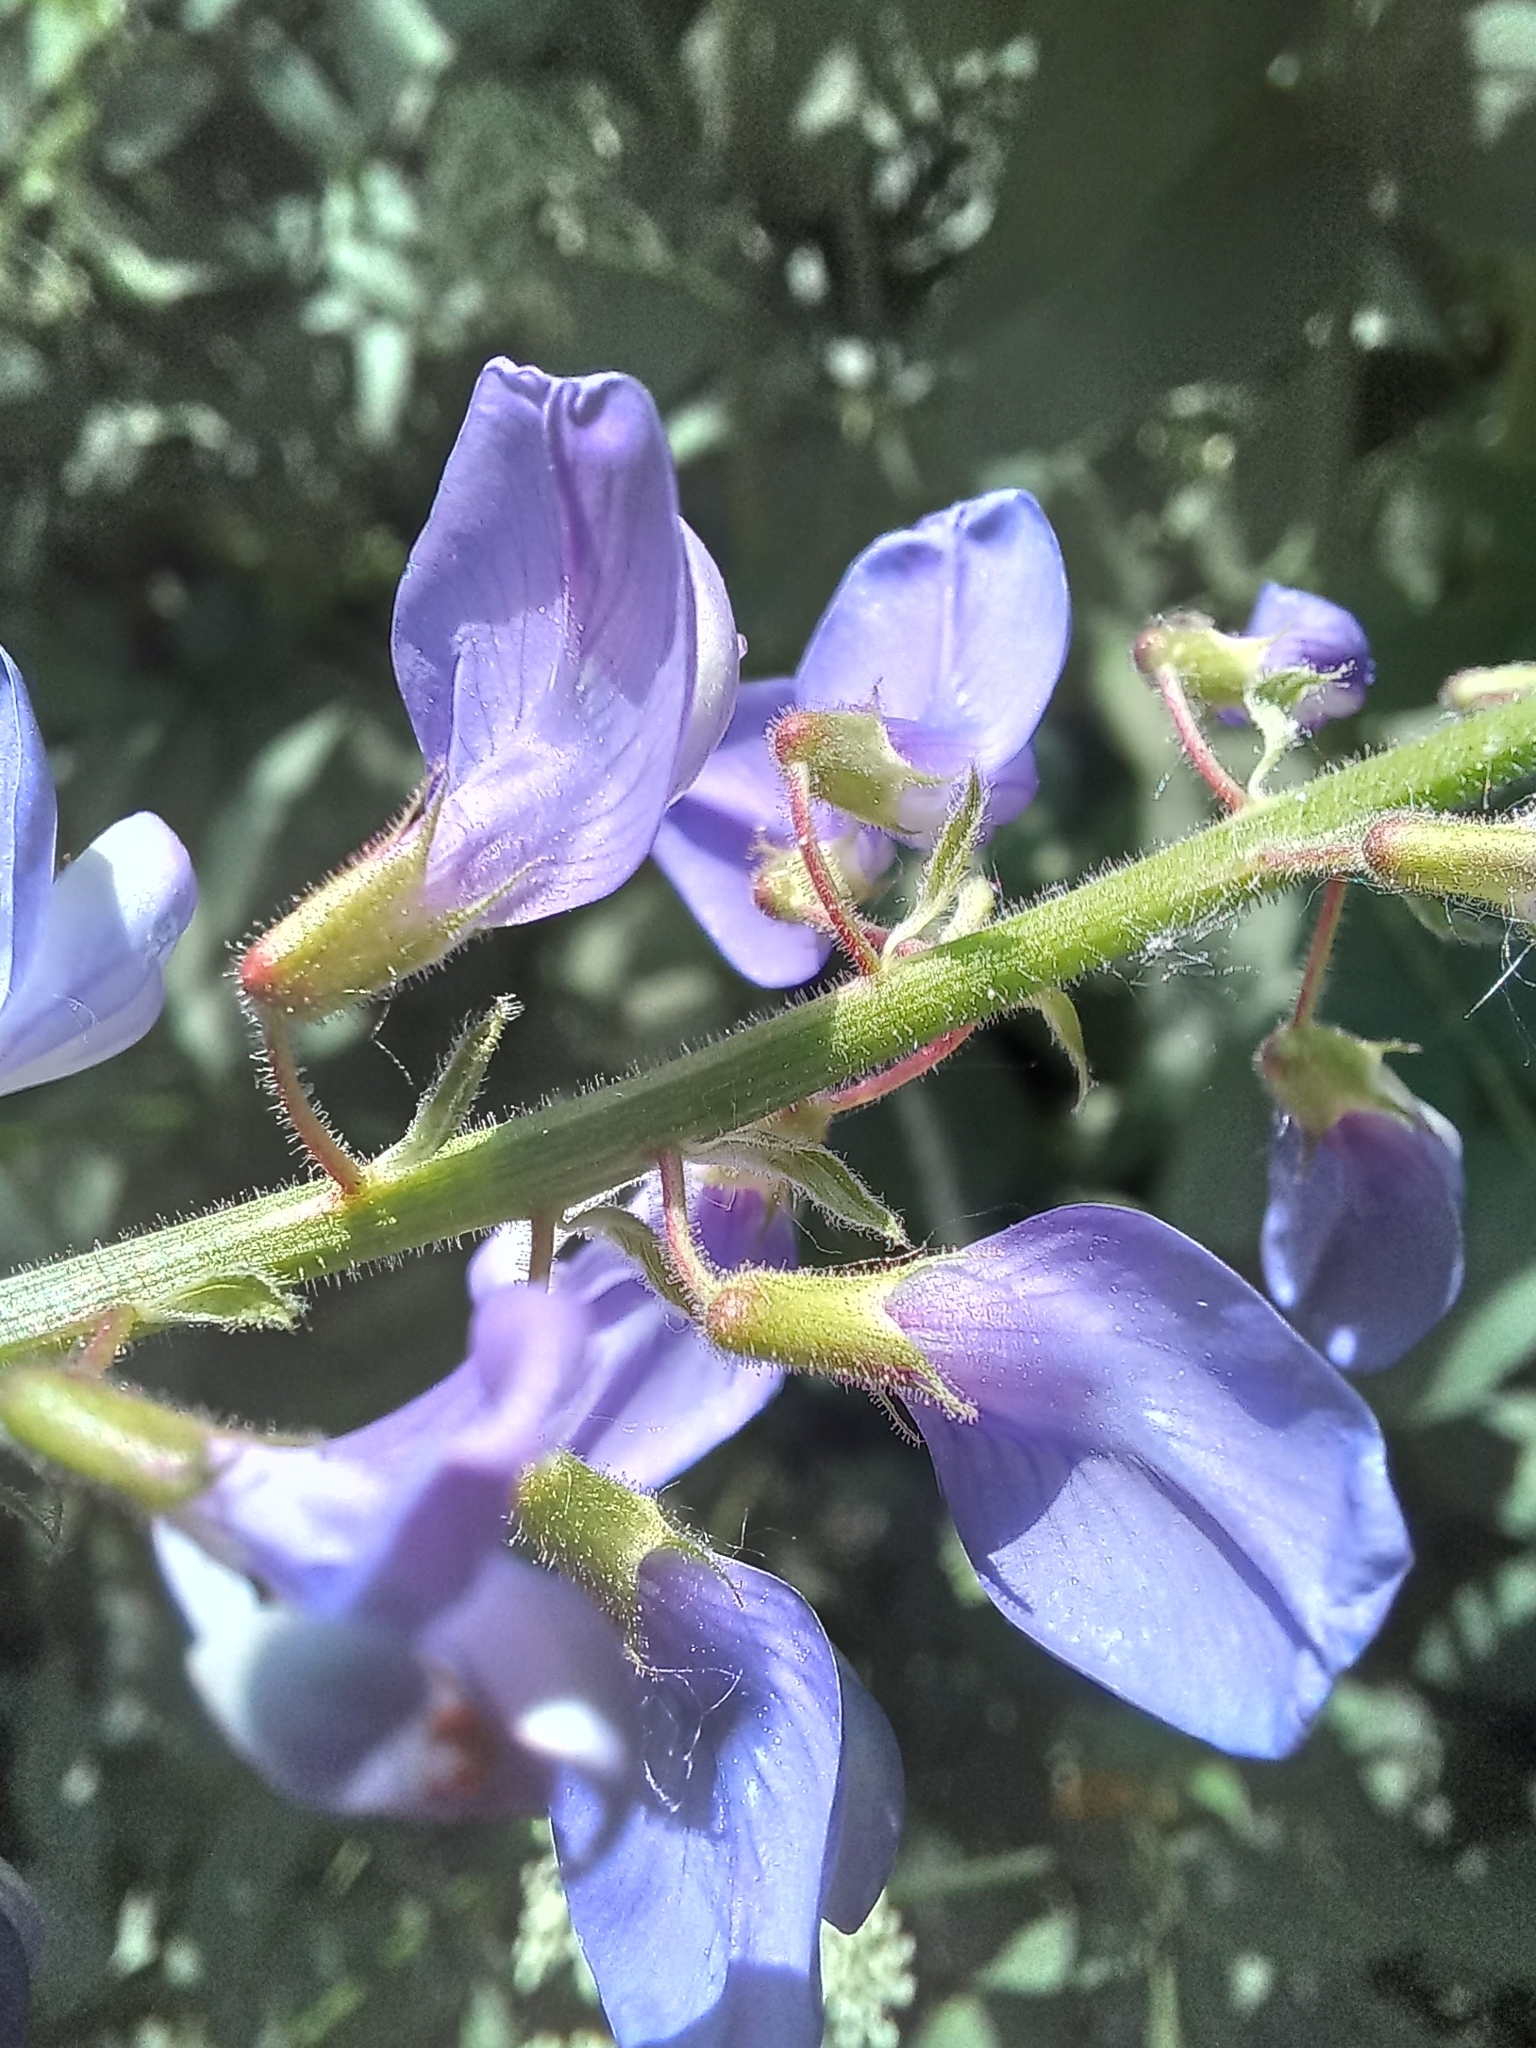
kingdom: Plantae
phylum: Tracheophyta
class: Magnoliopsida
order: Fabales
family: Fabaceae
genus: Galega
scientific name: Galega orientalis
